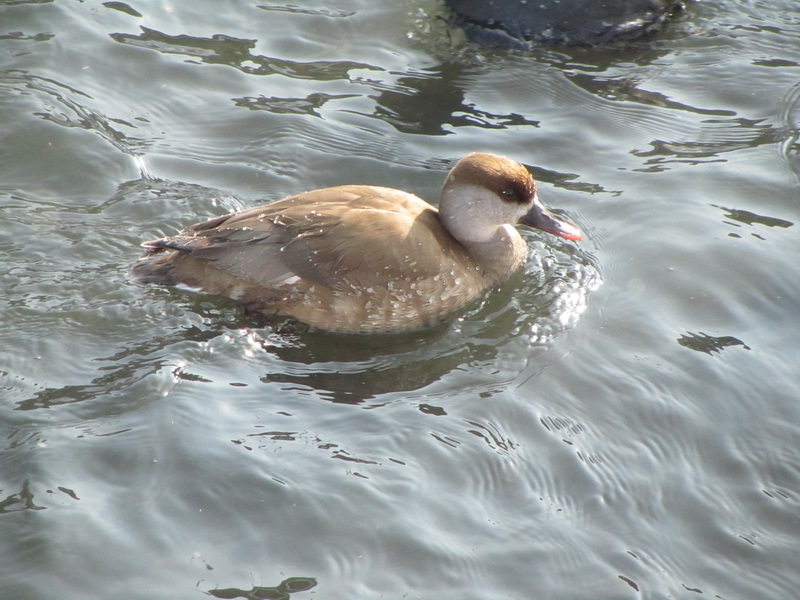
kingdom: Animalia
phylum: Chordata
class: Aves
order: Anseriformes
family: Anatidae
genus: Netta
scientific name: Netta rufina
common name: Red-crested pochard
